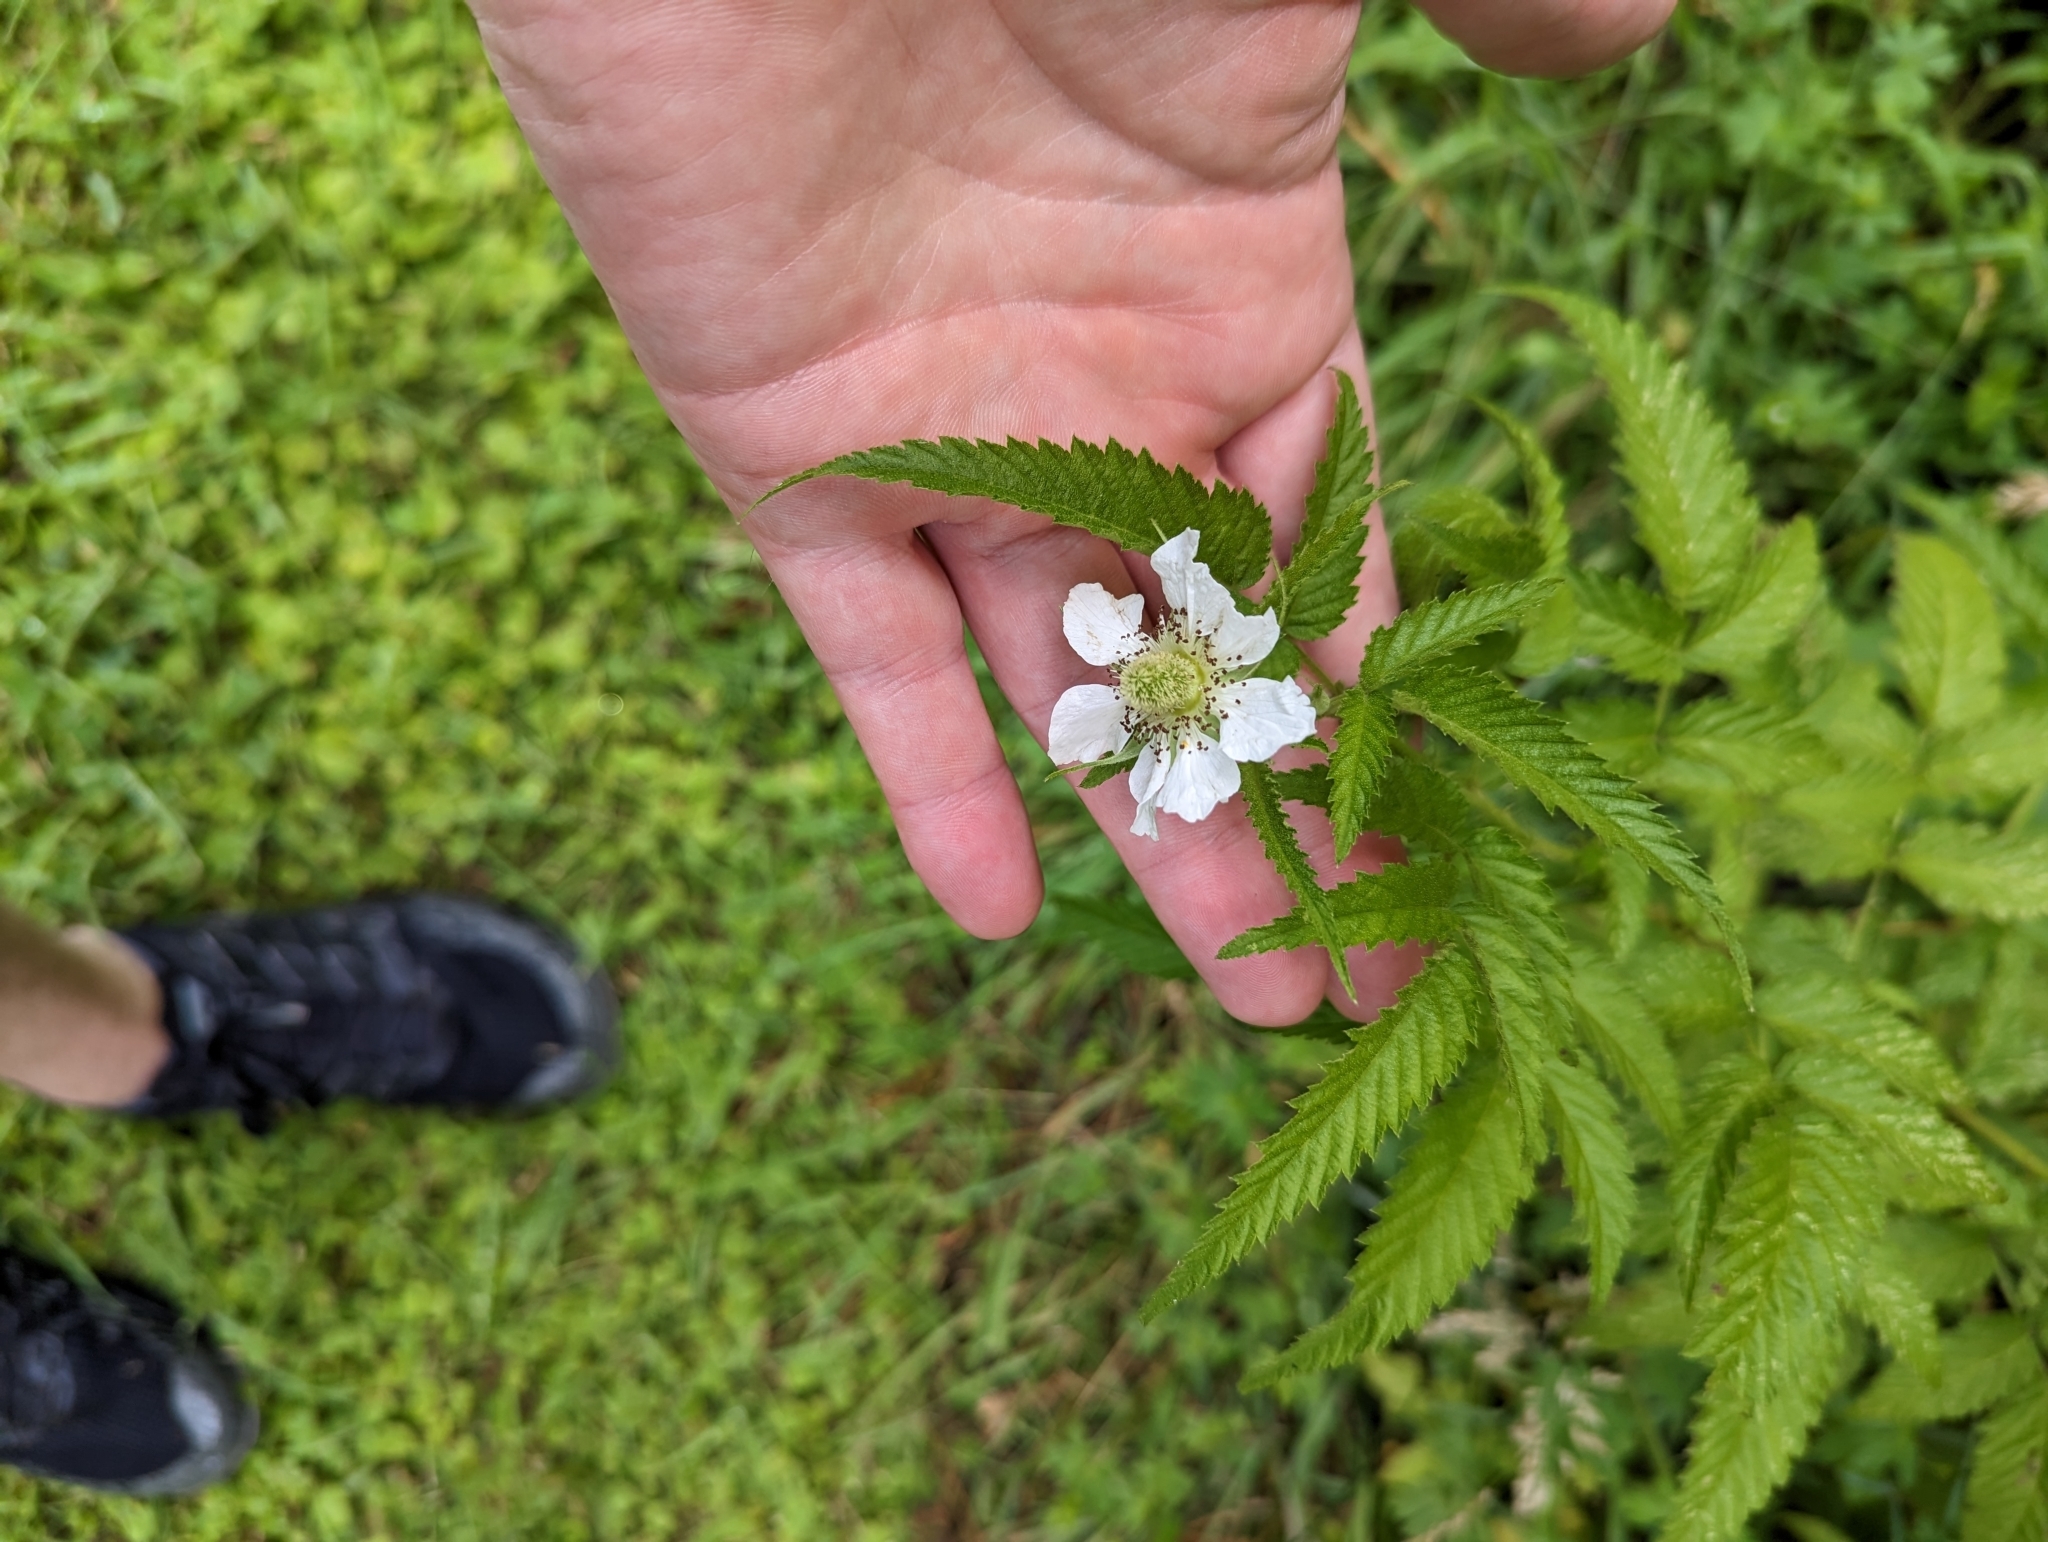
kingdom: Plantae
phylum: Tracheophyta
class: Magnoliopsida
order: Rosales
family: Rosaceae
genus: Rubus
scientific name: Rubus rosifolius
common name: Roseleaf raspberry
